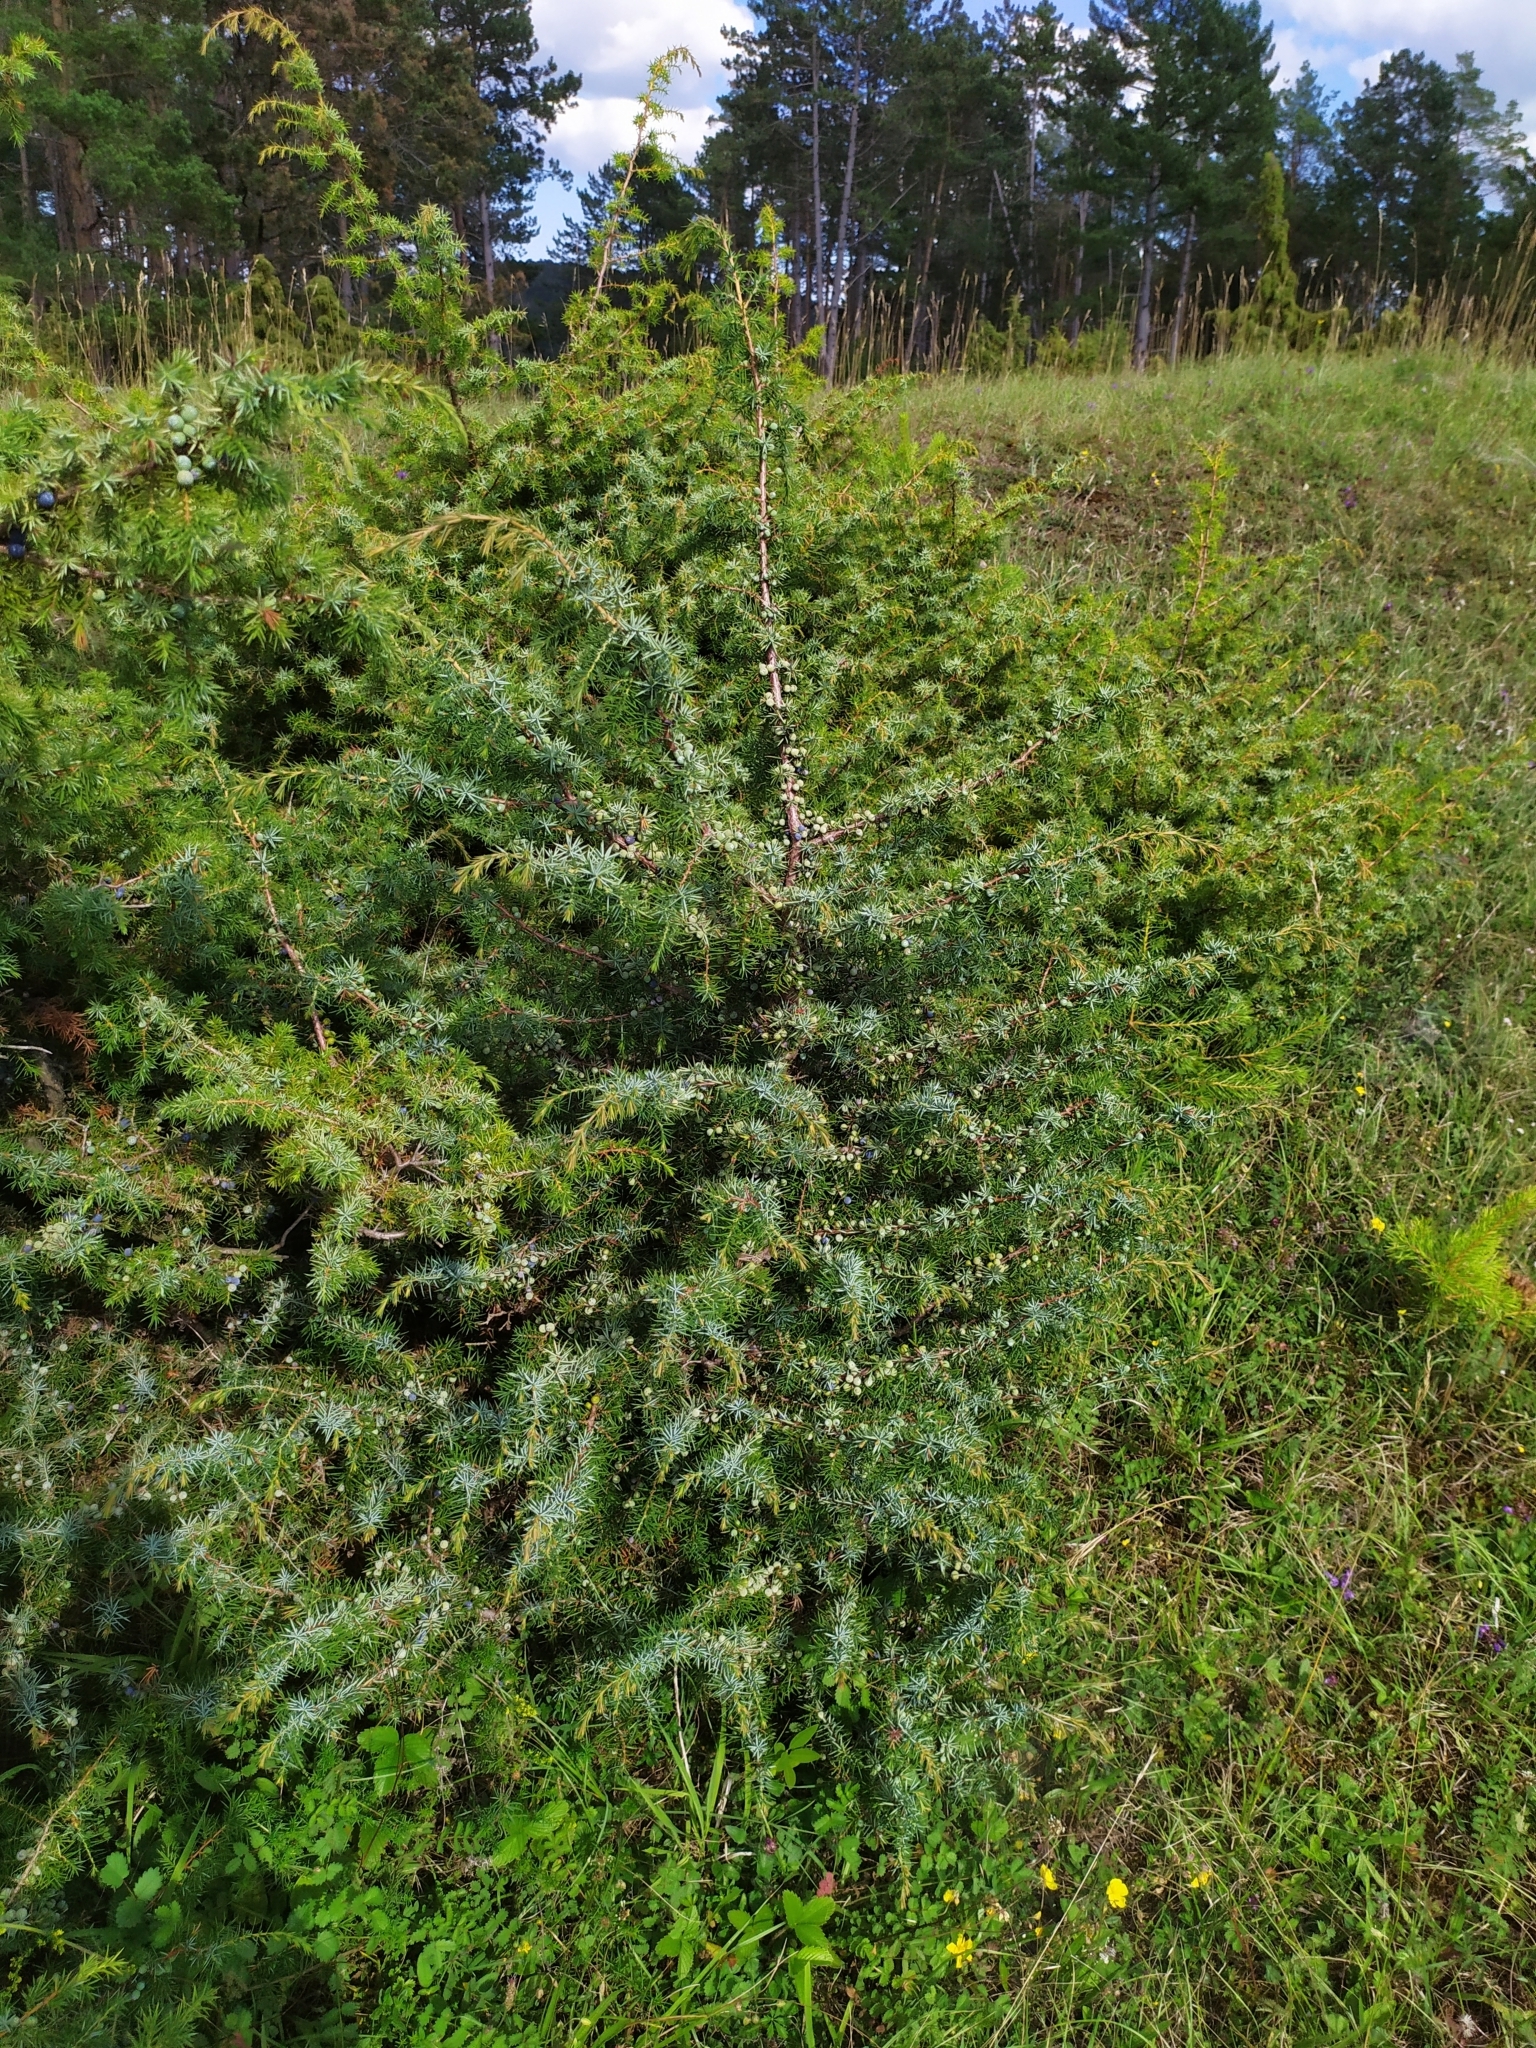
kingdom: Plantae
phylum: Tracheophyta
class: Pinopsida
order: Pinales
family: Cupressaceae
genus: Juniperus
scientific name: Juniperus communis
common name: Common juniper
